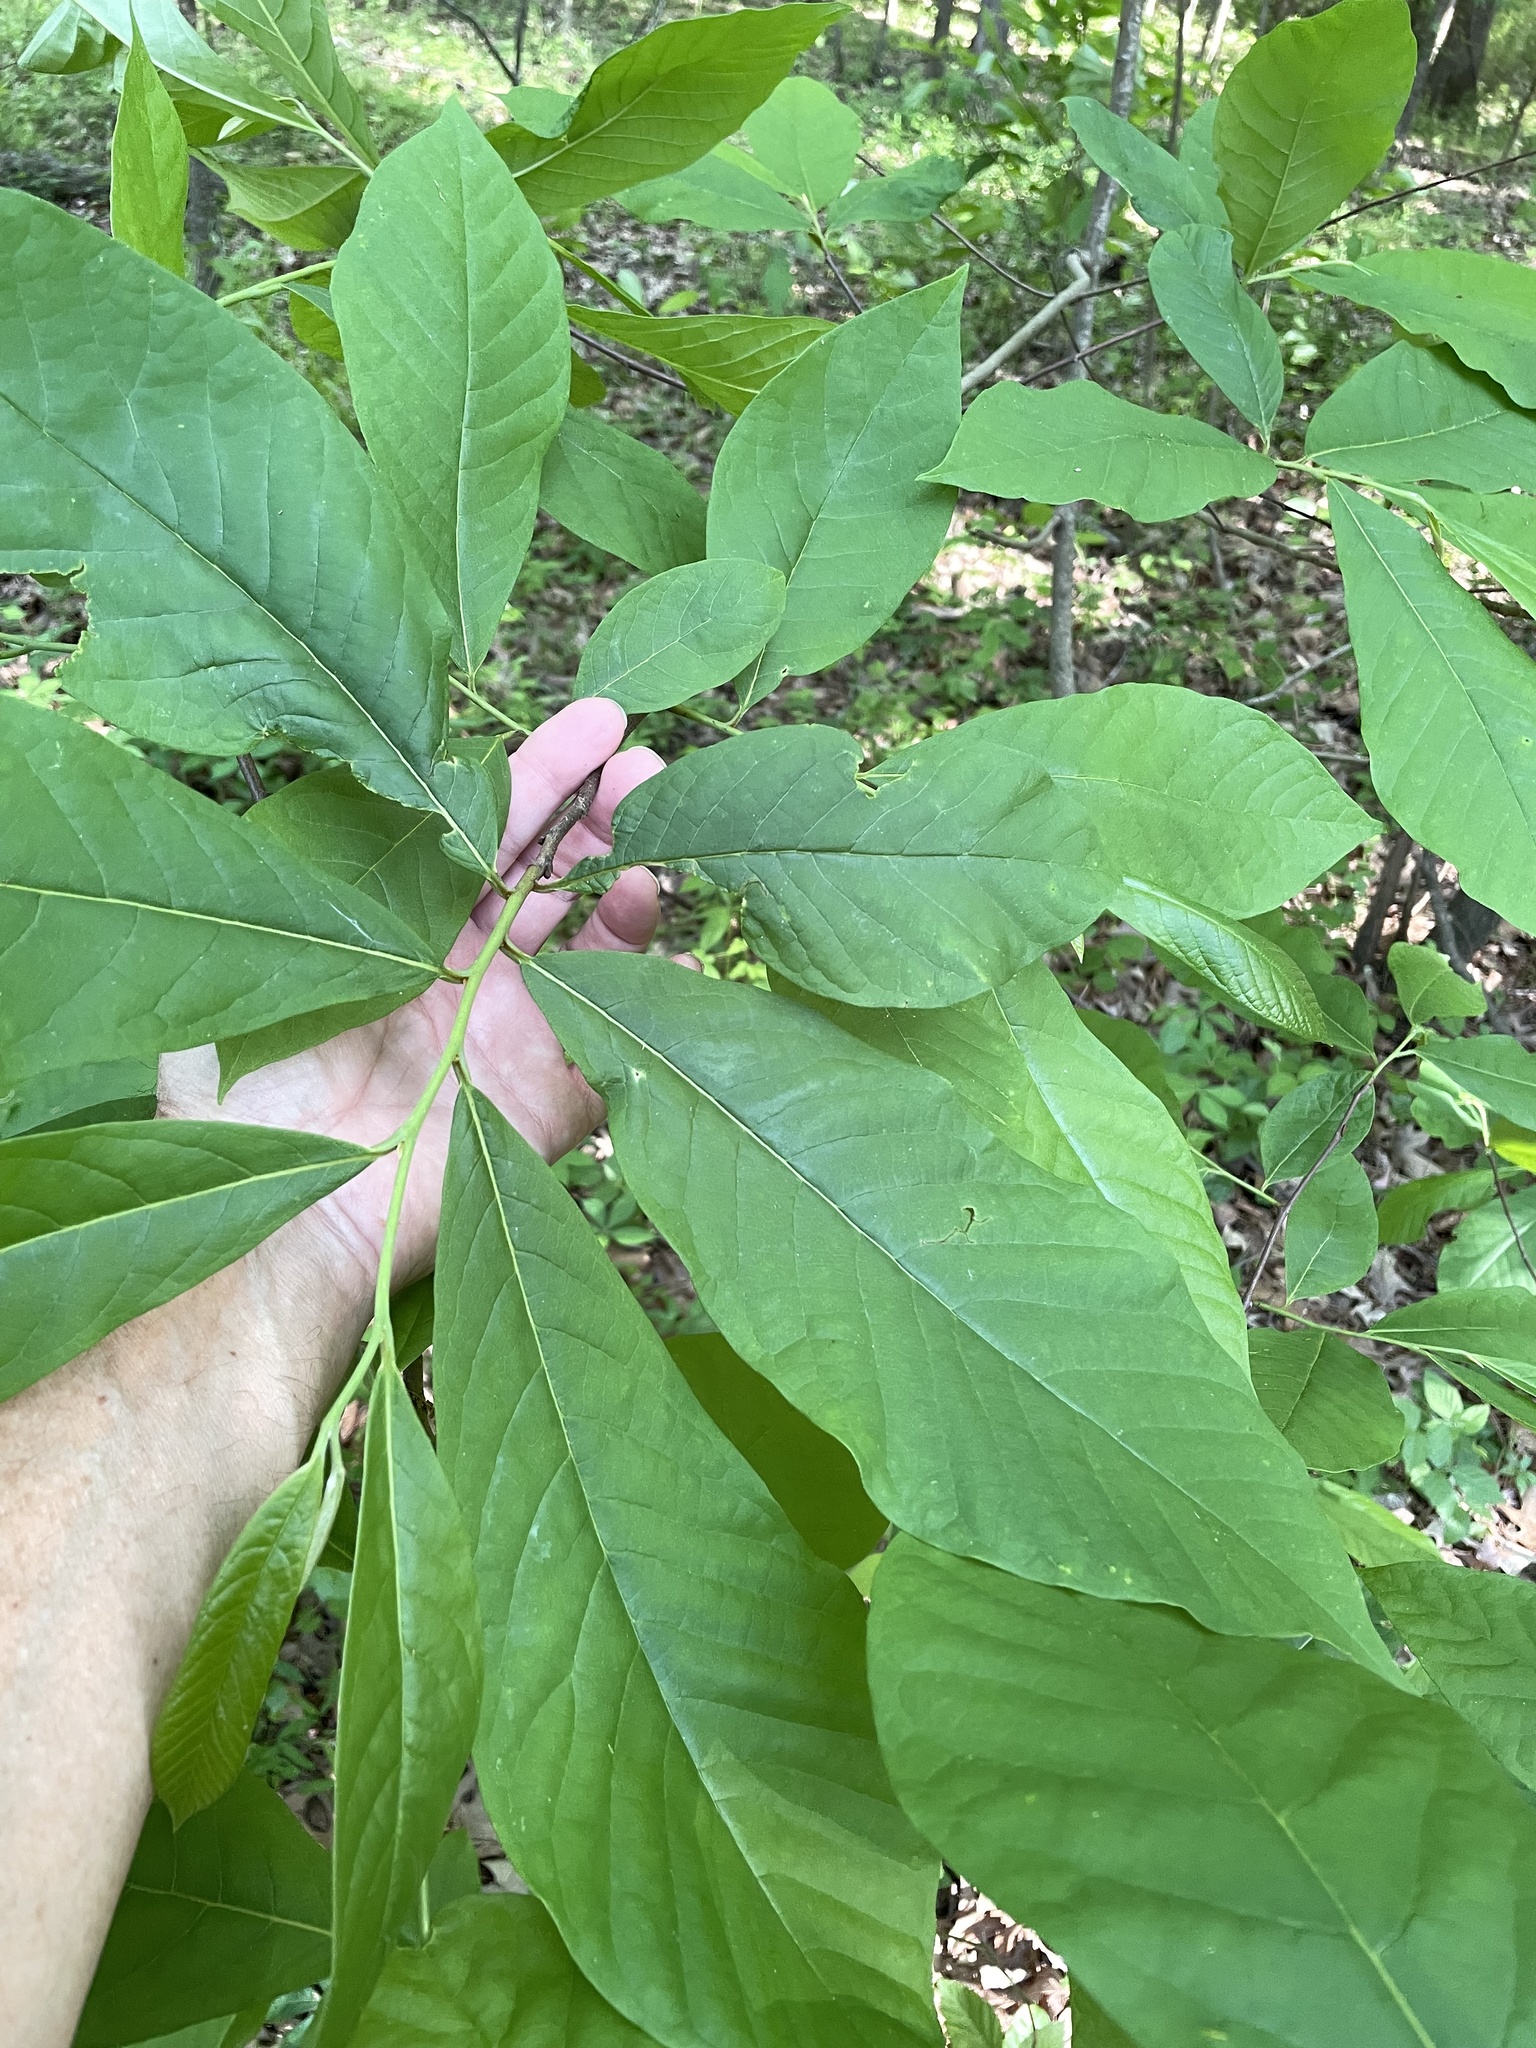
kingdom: Plantae
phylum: Tracheophyta
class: Magnoliopsida
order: Magnoliales
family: Annonaceae
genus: Asimina
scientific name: Asimina triloba
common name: Dog-banana
